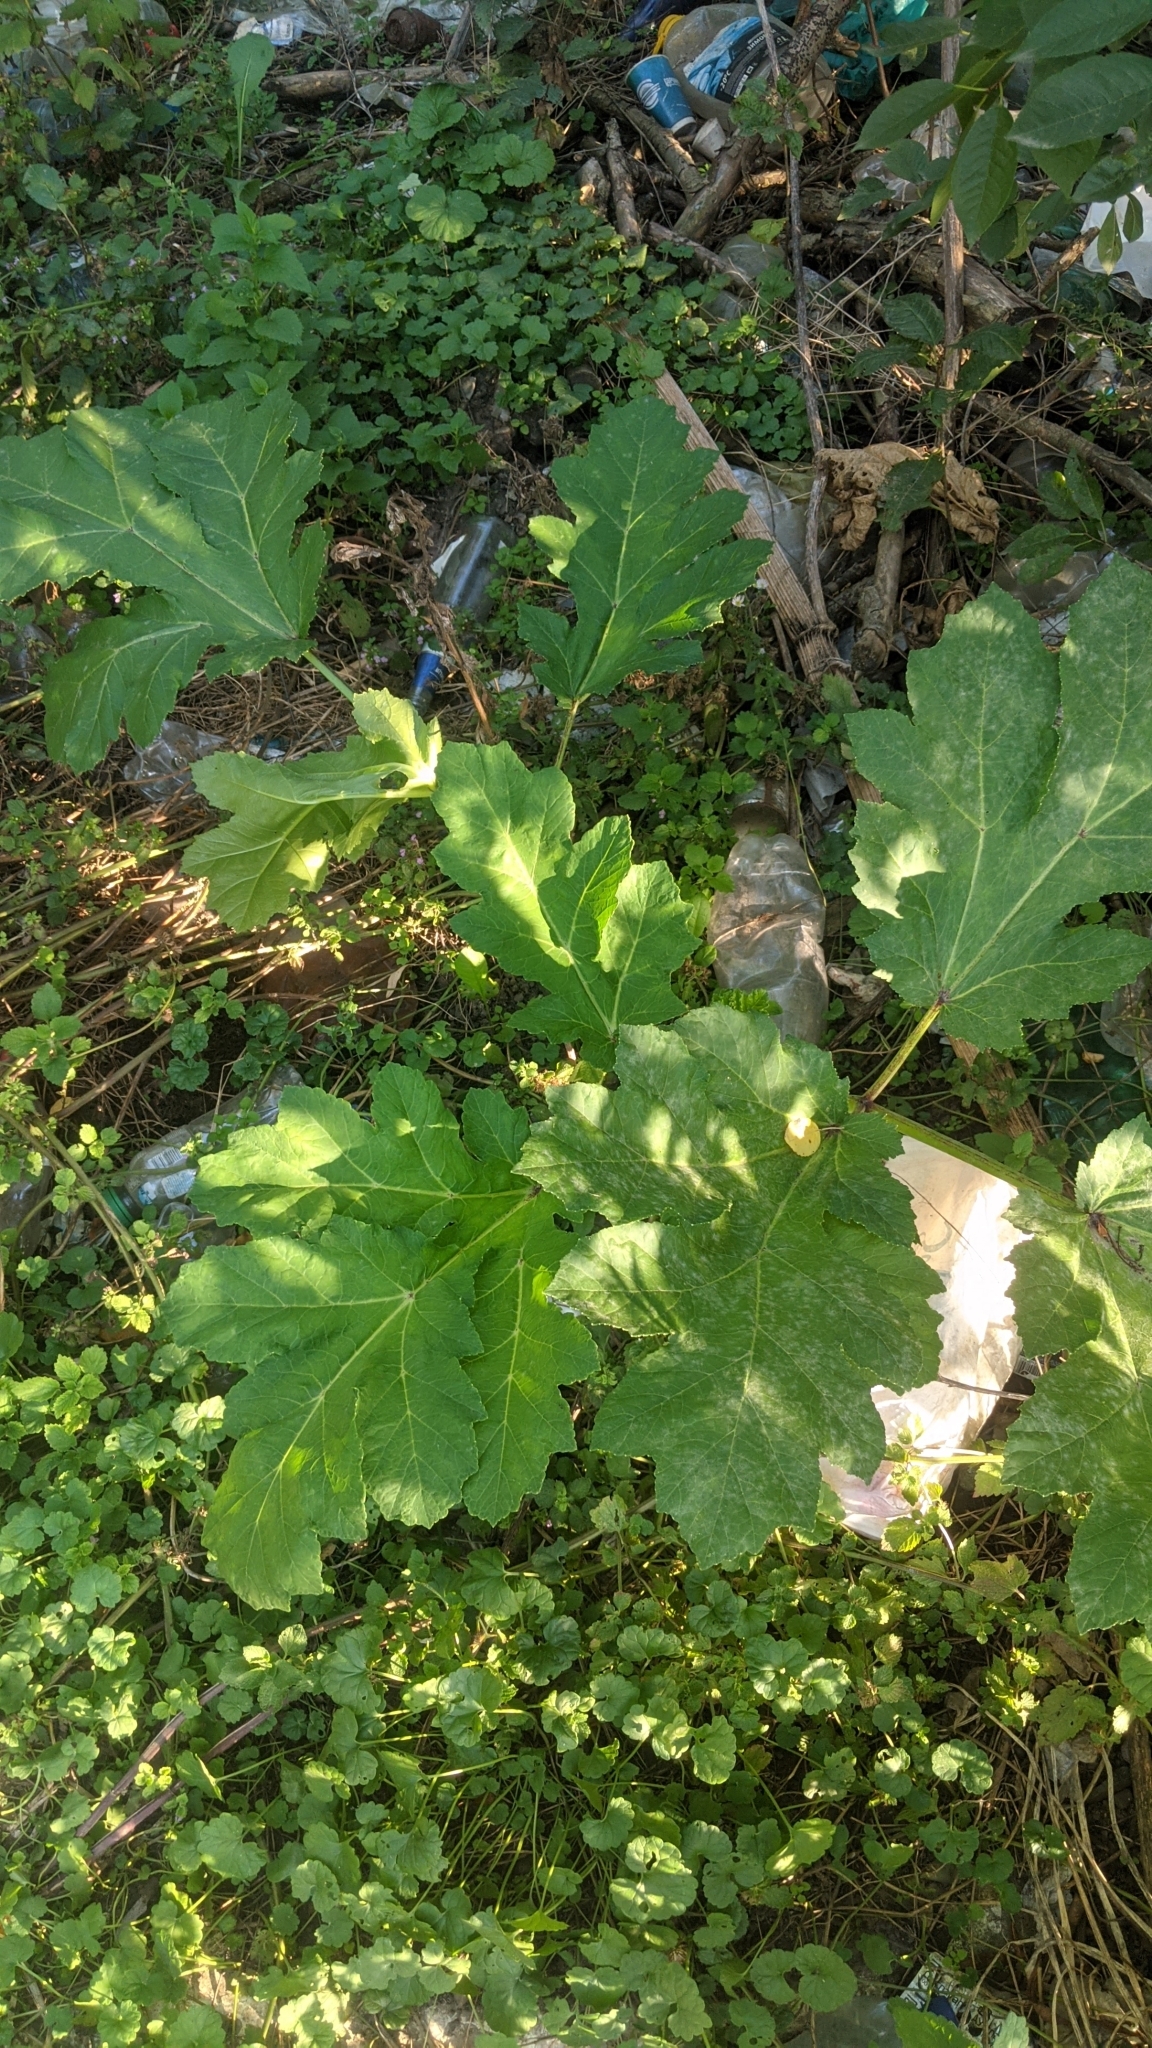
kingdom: Plantae
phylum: Tracheophyta
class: Magnoliopsida
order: Apiales
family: Apiaceae
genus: Heracleum
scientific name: Heracleum sosnowskyi
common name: Sosnowsky's hogweed
